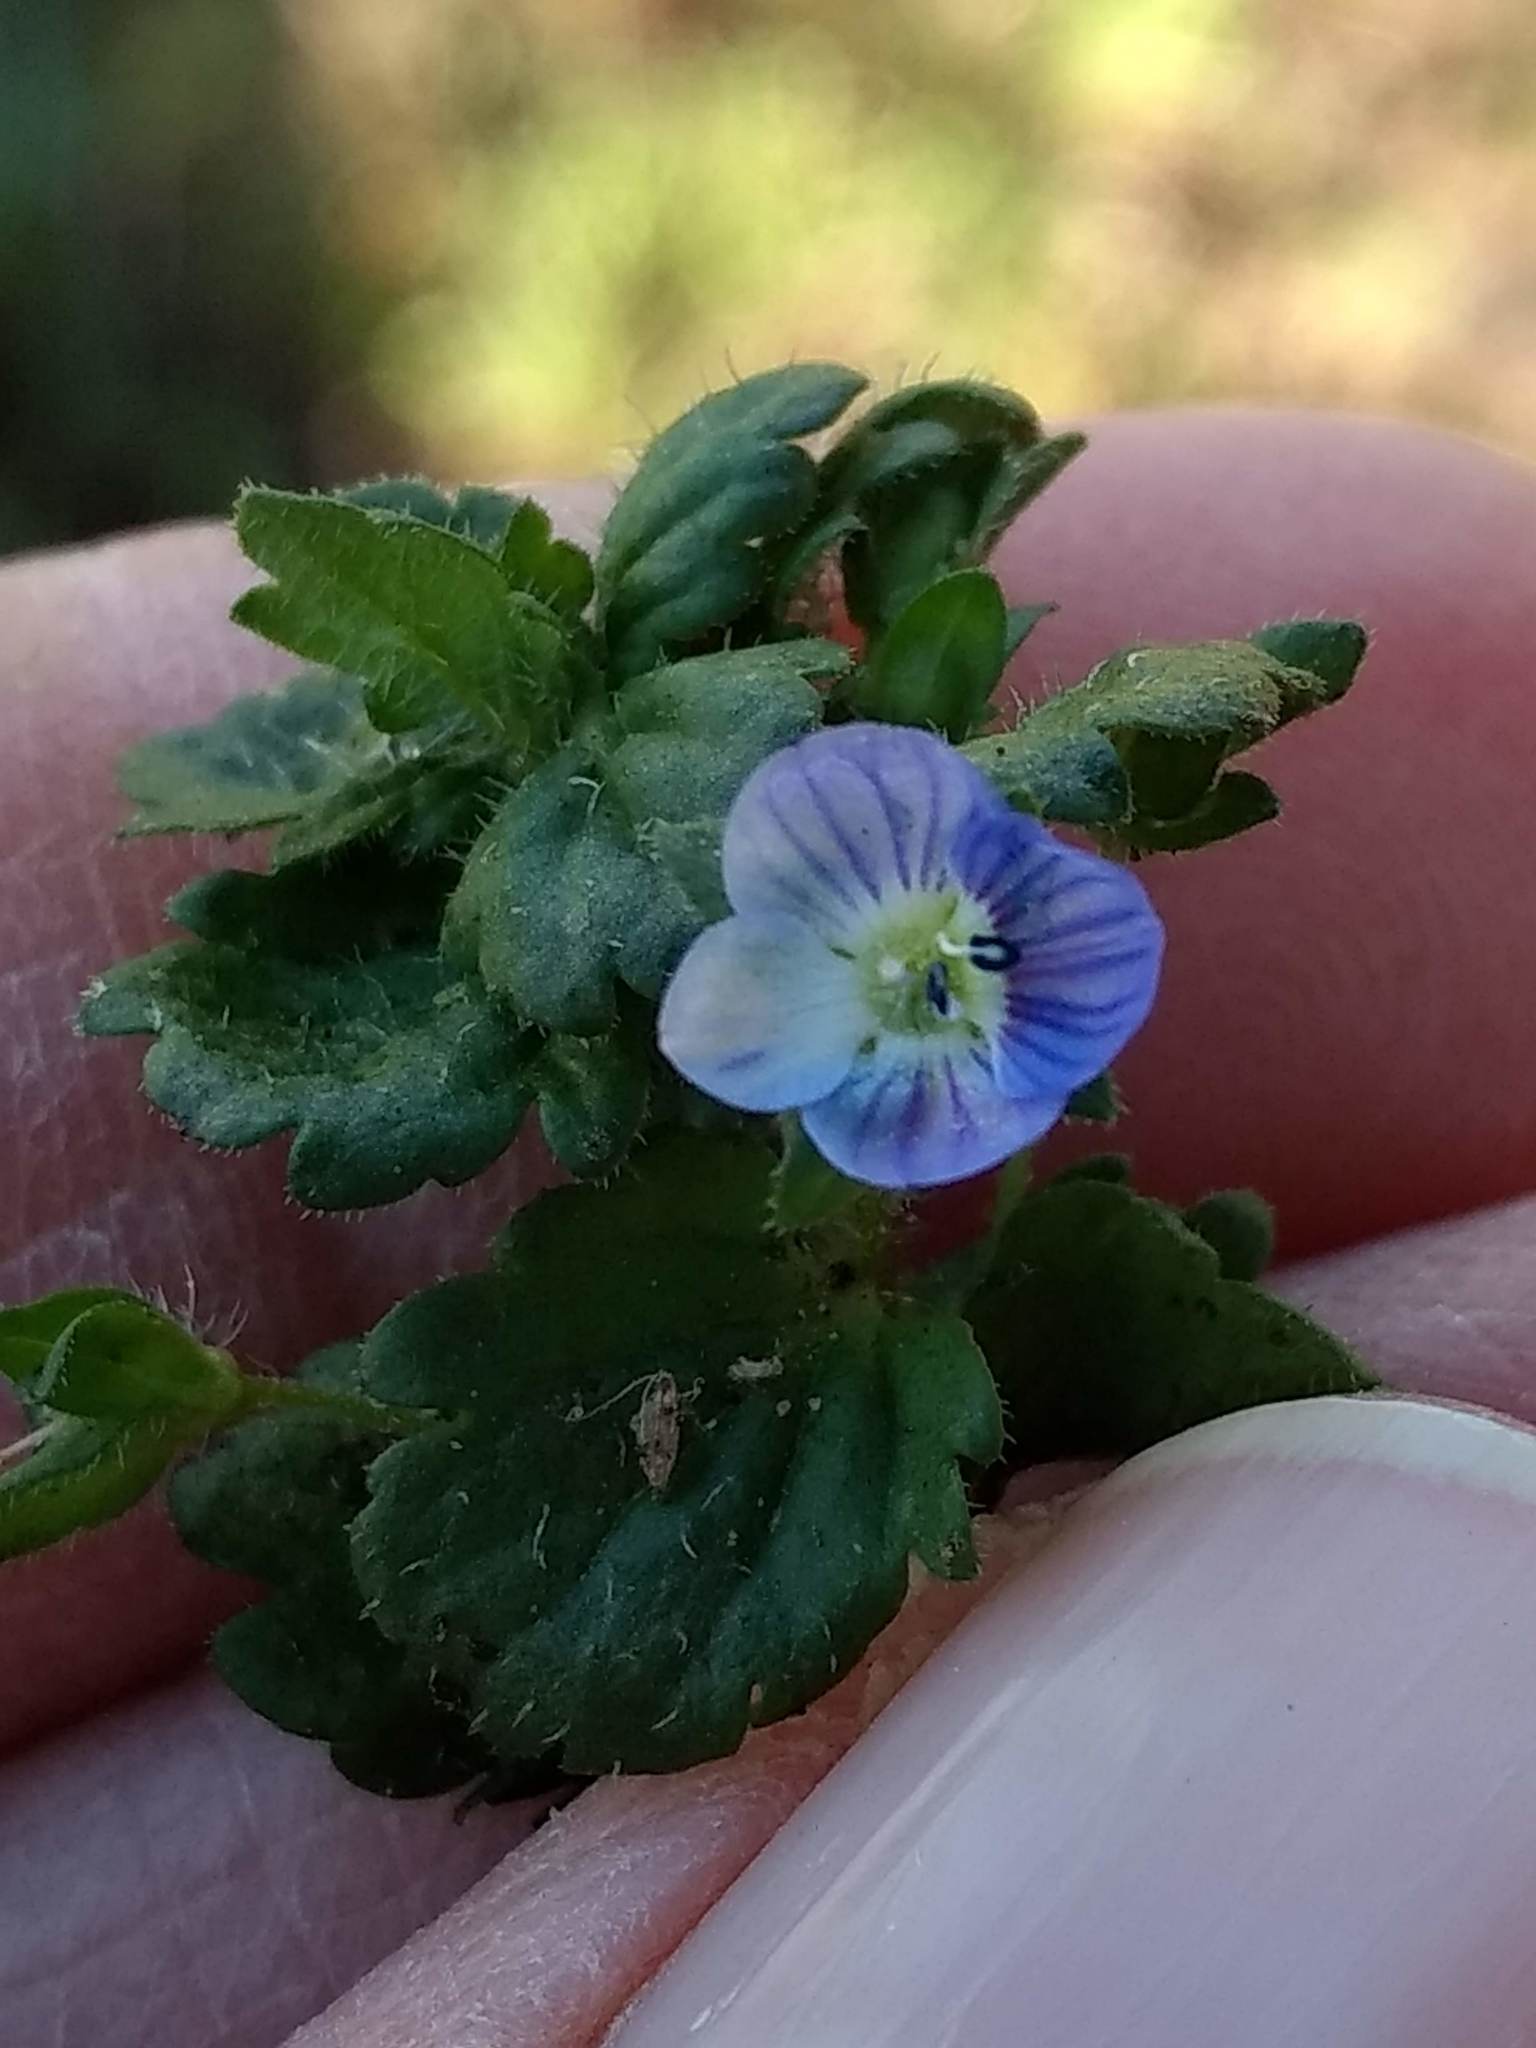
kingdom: Plantae
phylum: Tracheophyta
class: Magnoliopsida
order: Lamiales
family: Plantaginaceae
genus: Veronica
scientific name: Veronica persica
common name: Common field-speedwell
